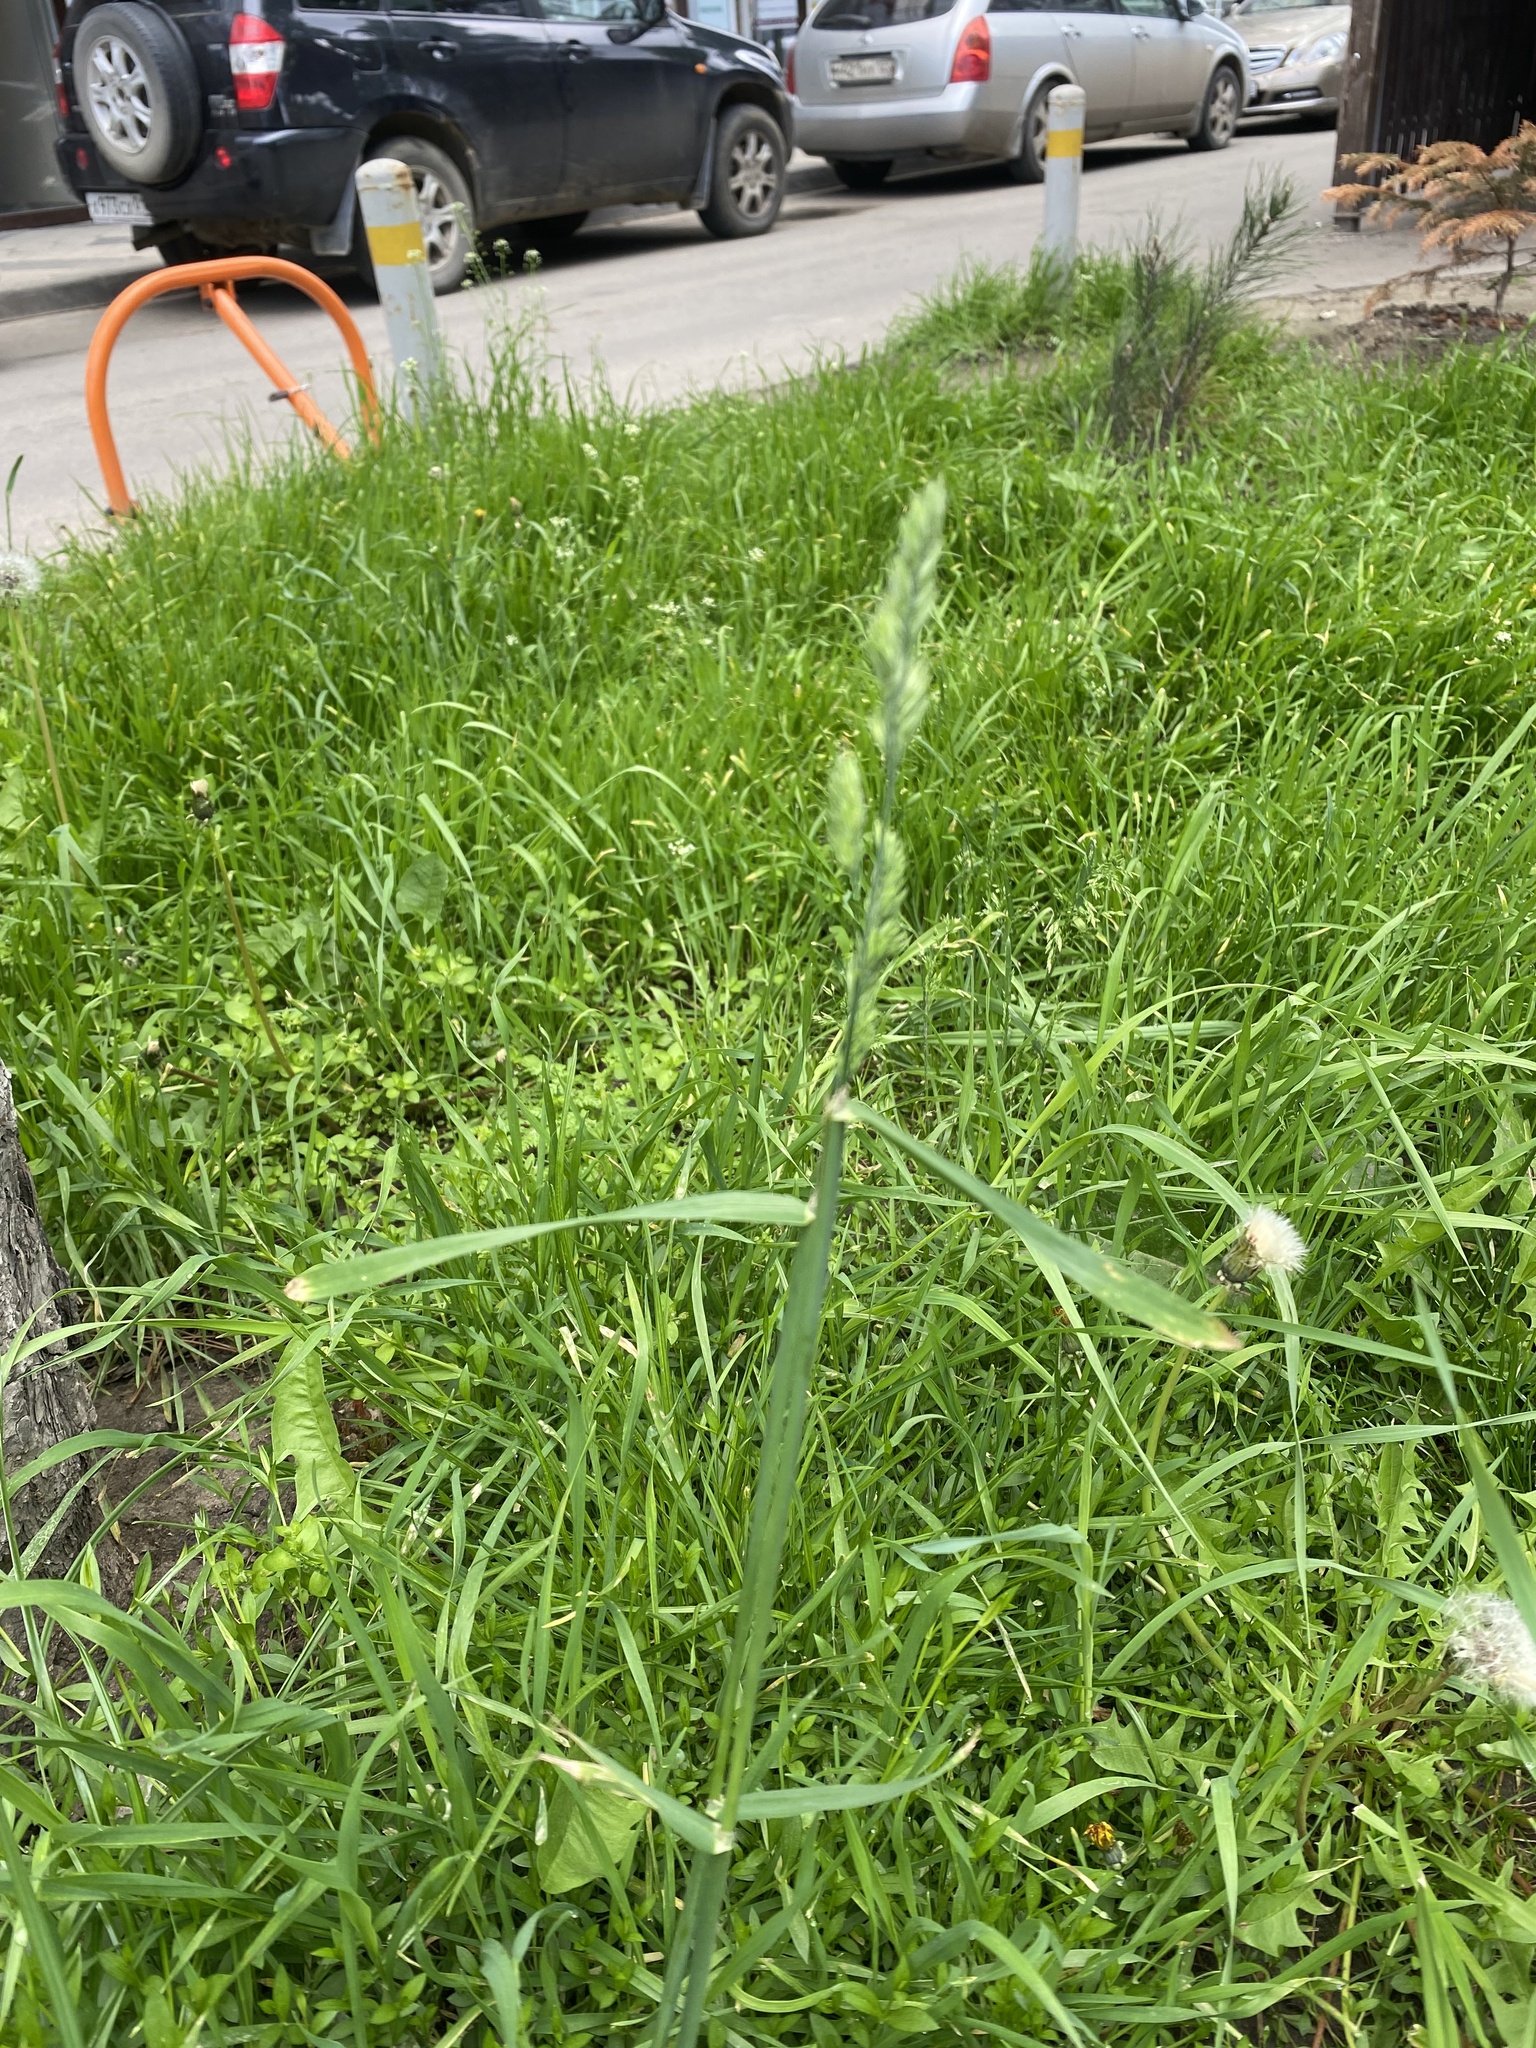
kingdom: Plantae
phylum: Tracheophyta
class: Liliopsida
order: Poales
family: Poaceae
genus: Dactylis
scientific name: Dactylis glomerata
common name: Orchardgrass
